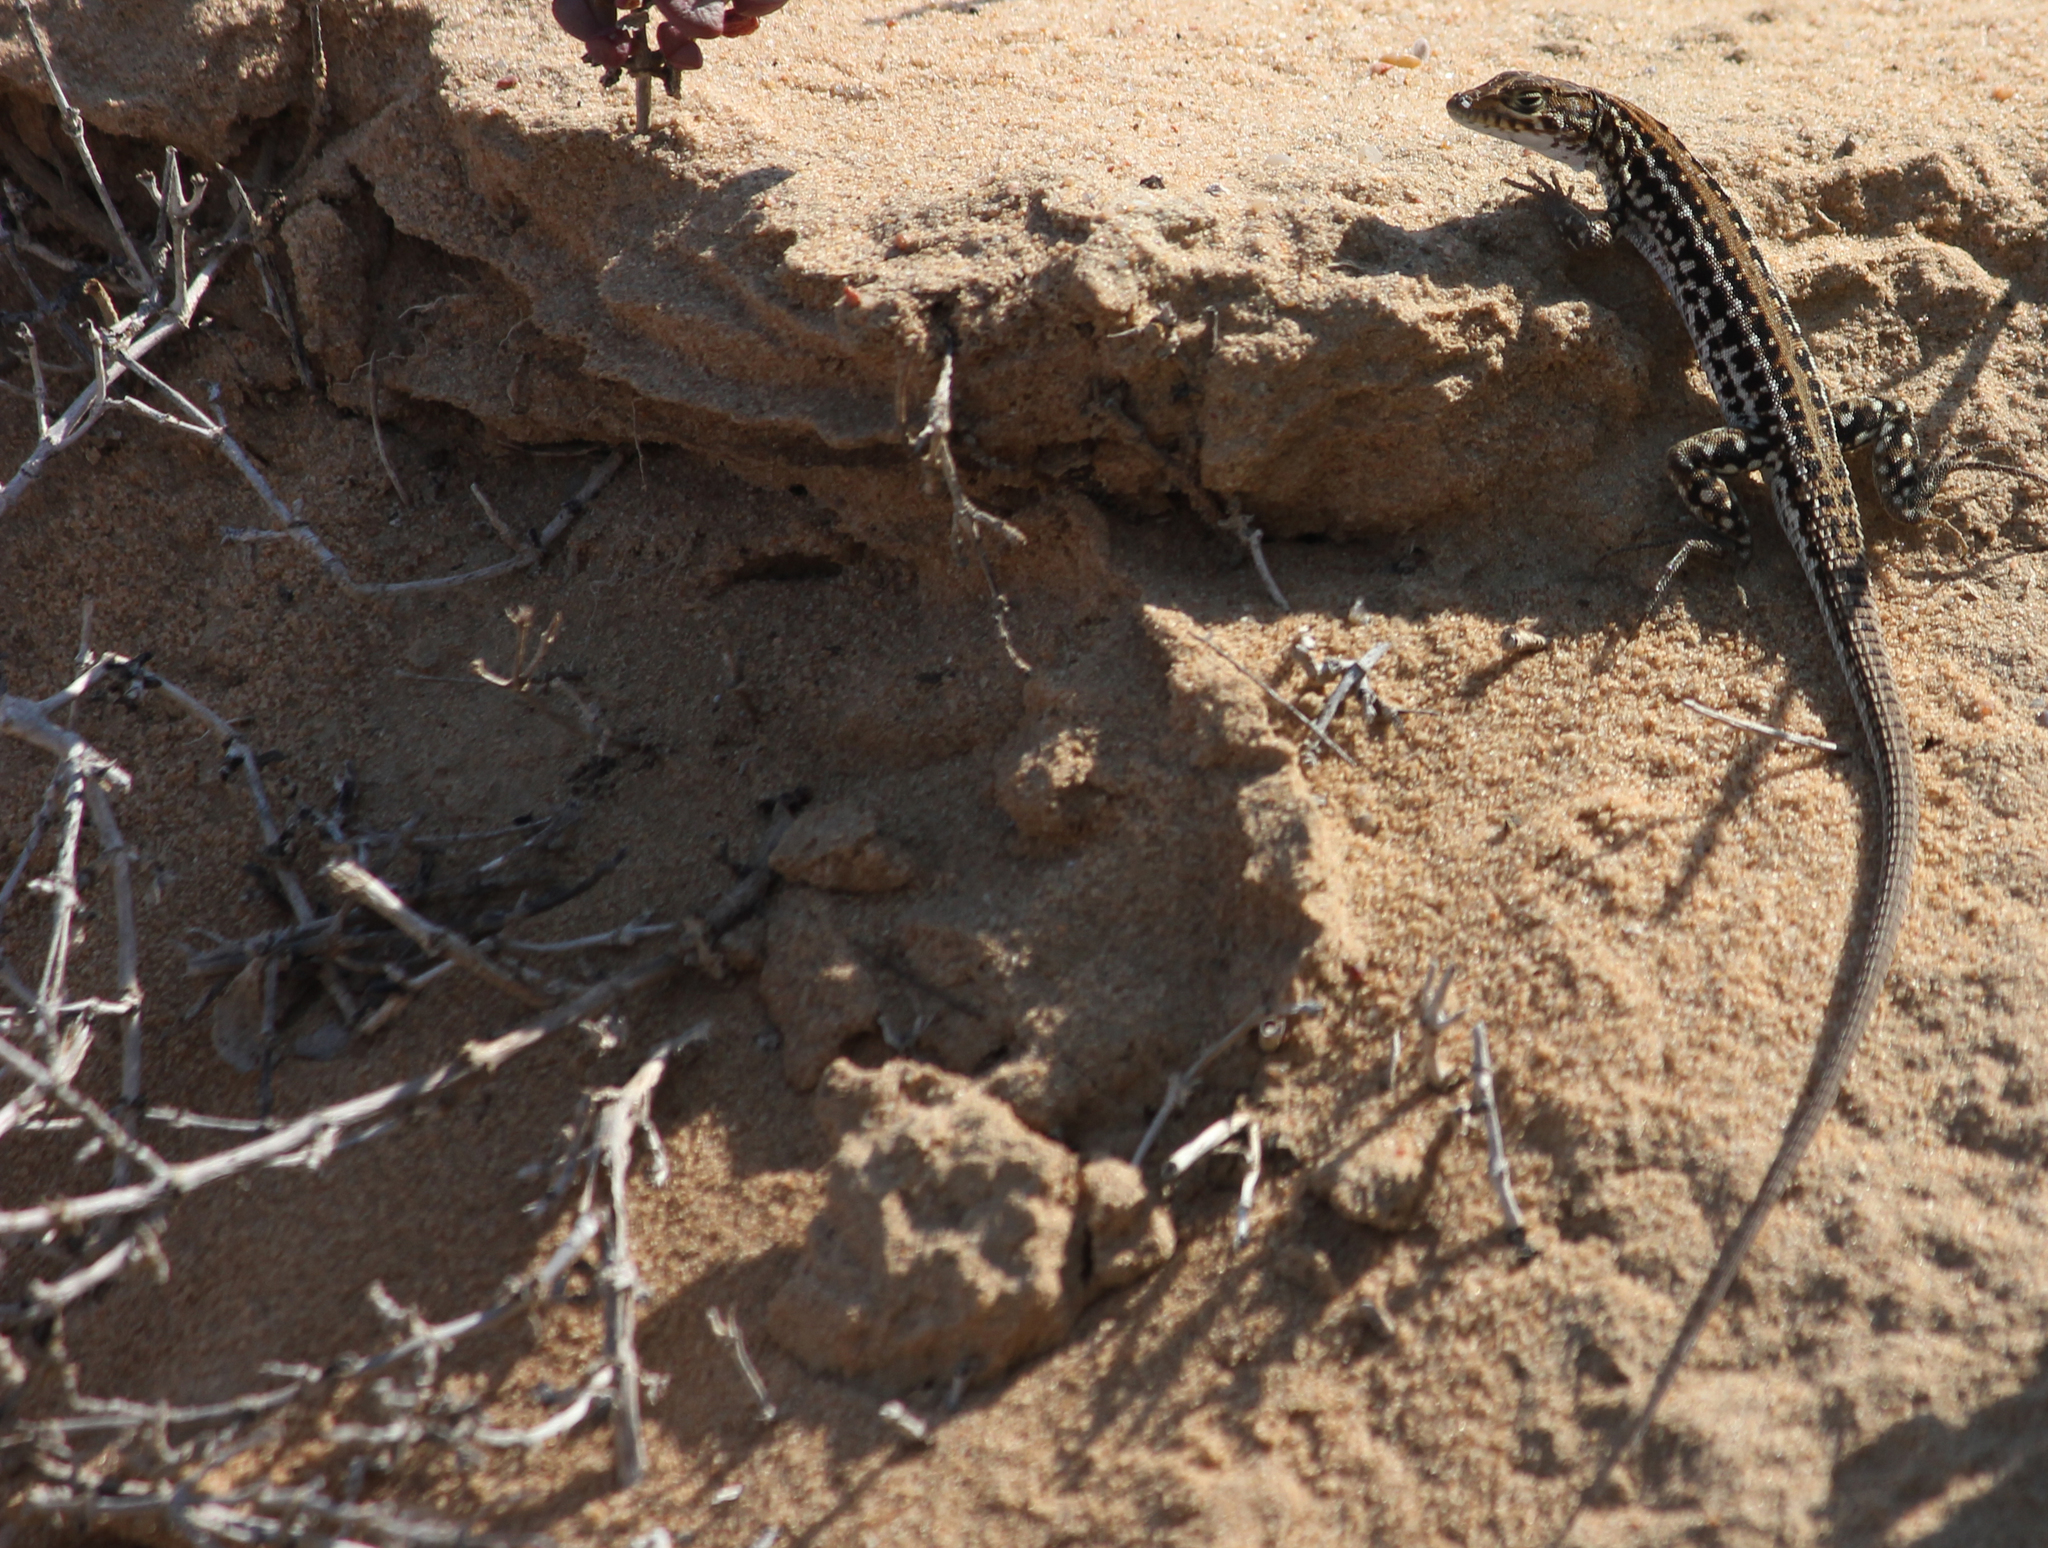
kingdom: Animalia
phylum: Chordata
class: Squamata
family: Lacertidae
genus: Meroles
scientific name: Meroles knoxii
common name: Knox's desert lizard
